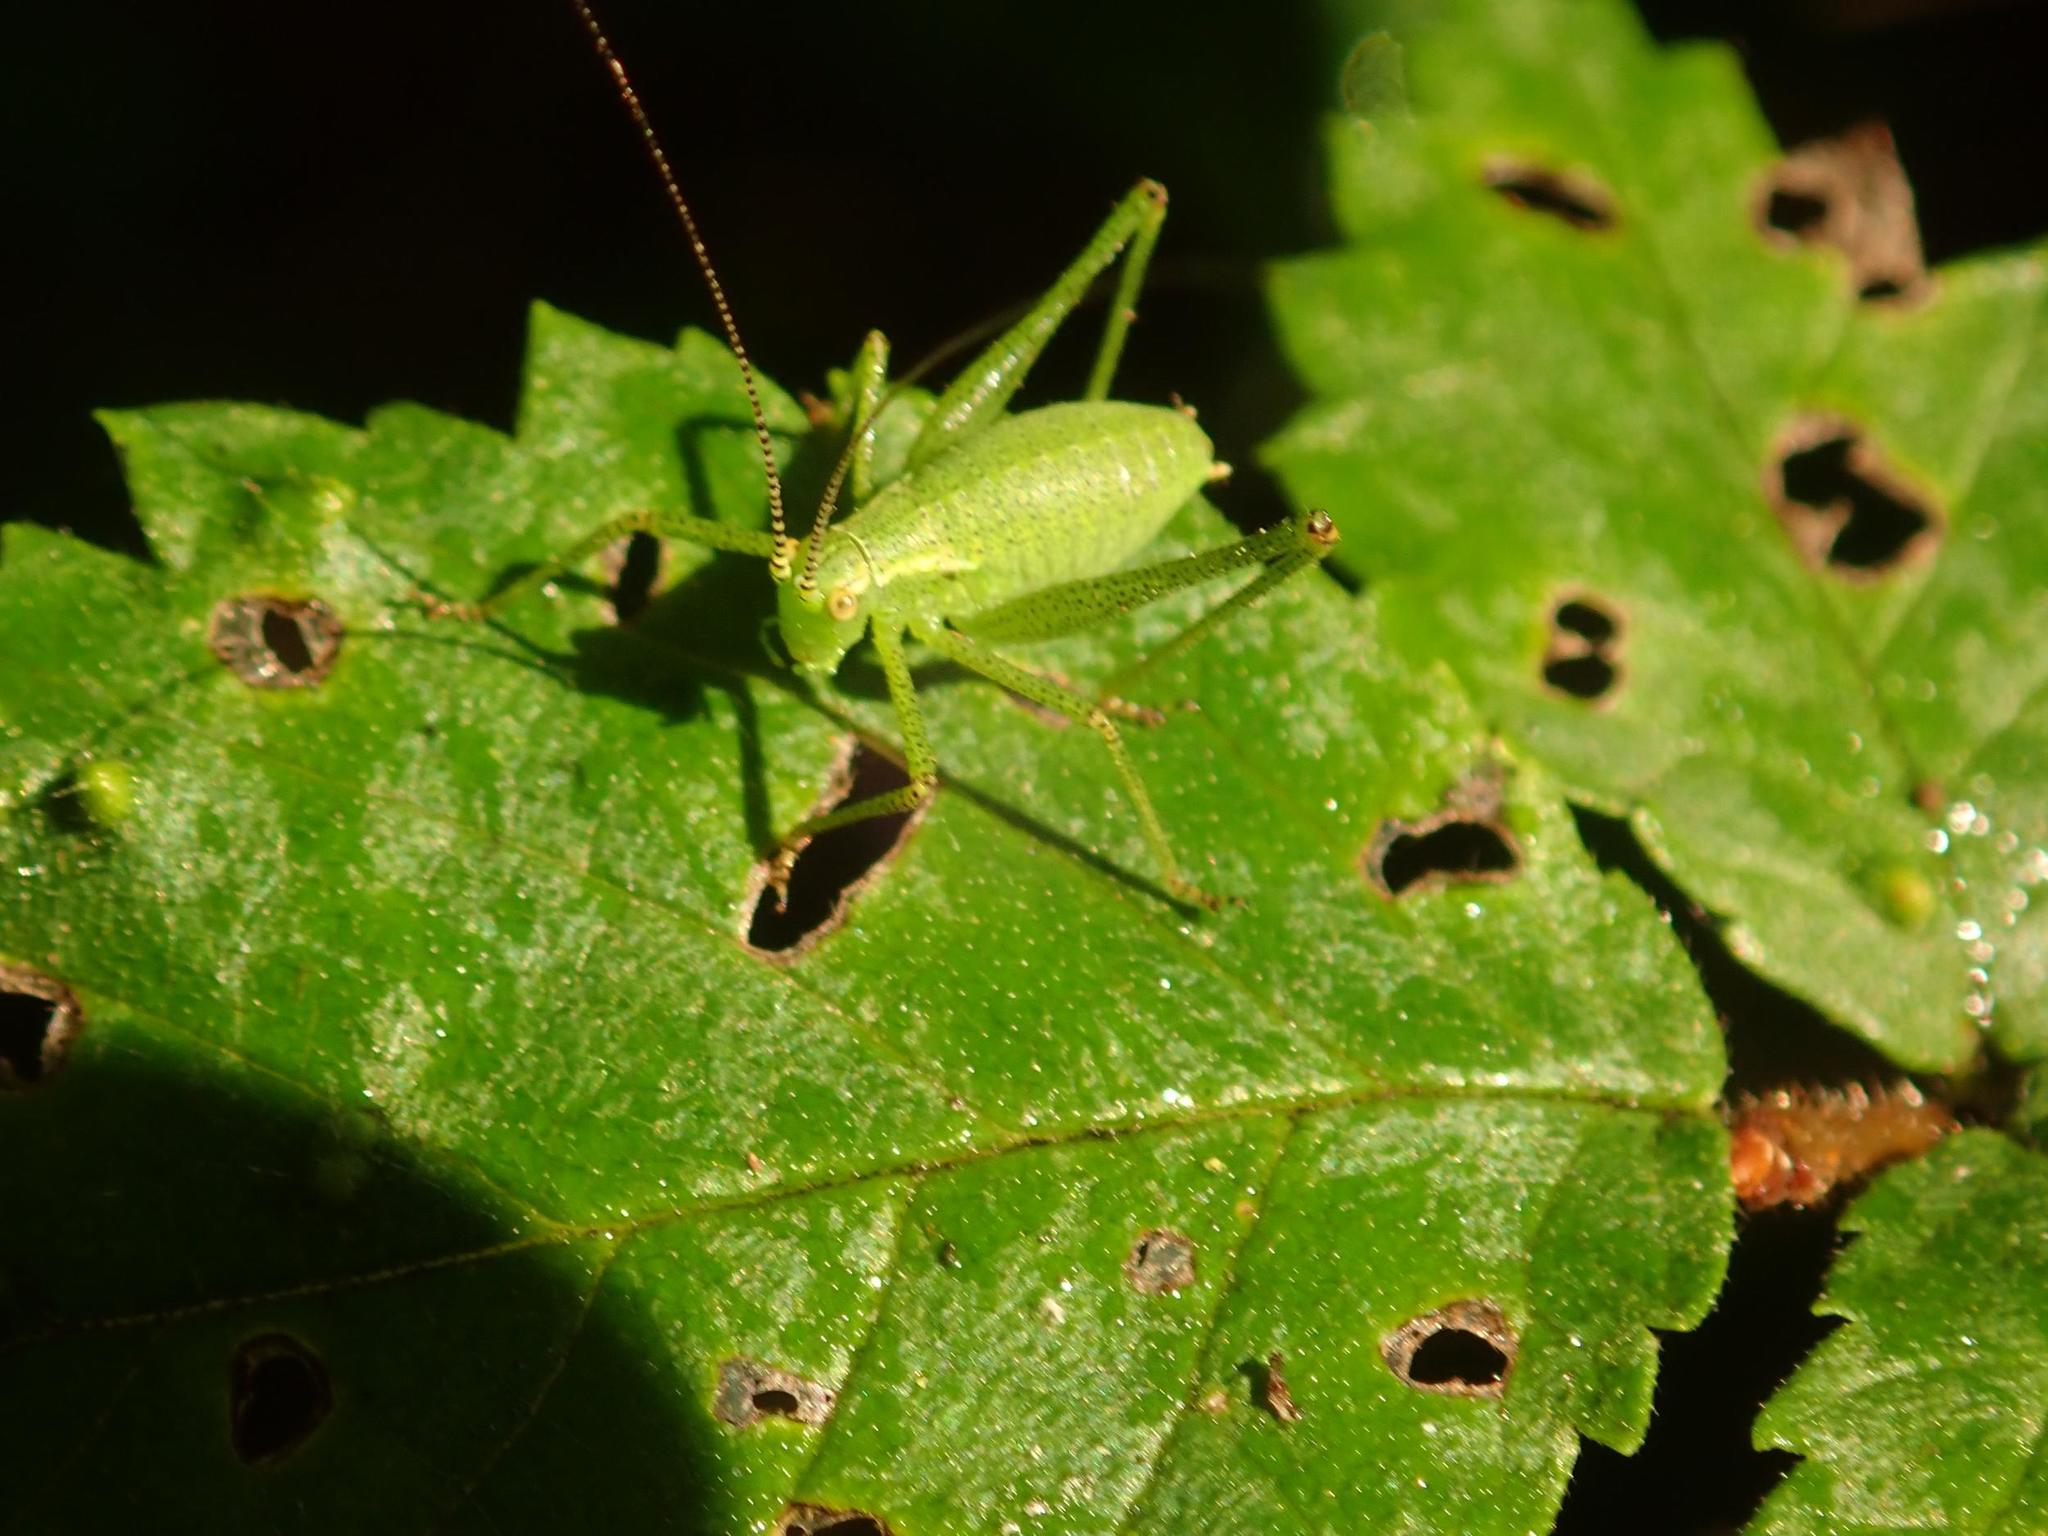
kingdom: Animalia
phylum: Arthropoda
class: Insecta
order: Orthoptera
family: Tettigoniidae
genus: Leptophyes
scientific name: Leptophyes punctatissima
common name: Speckled bush-cricket
